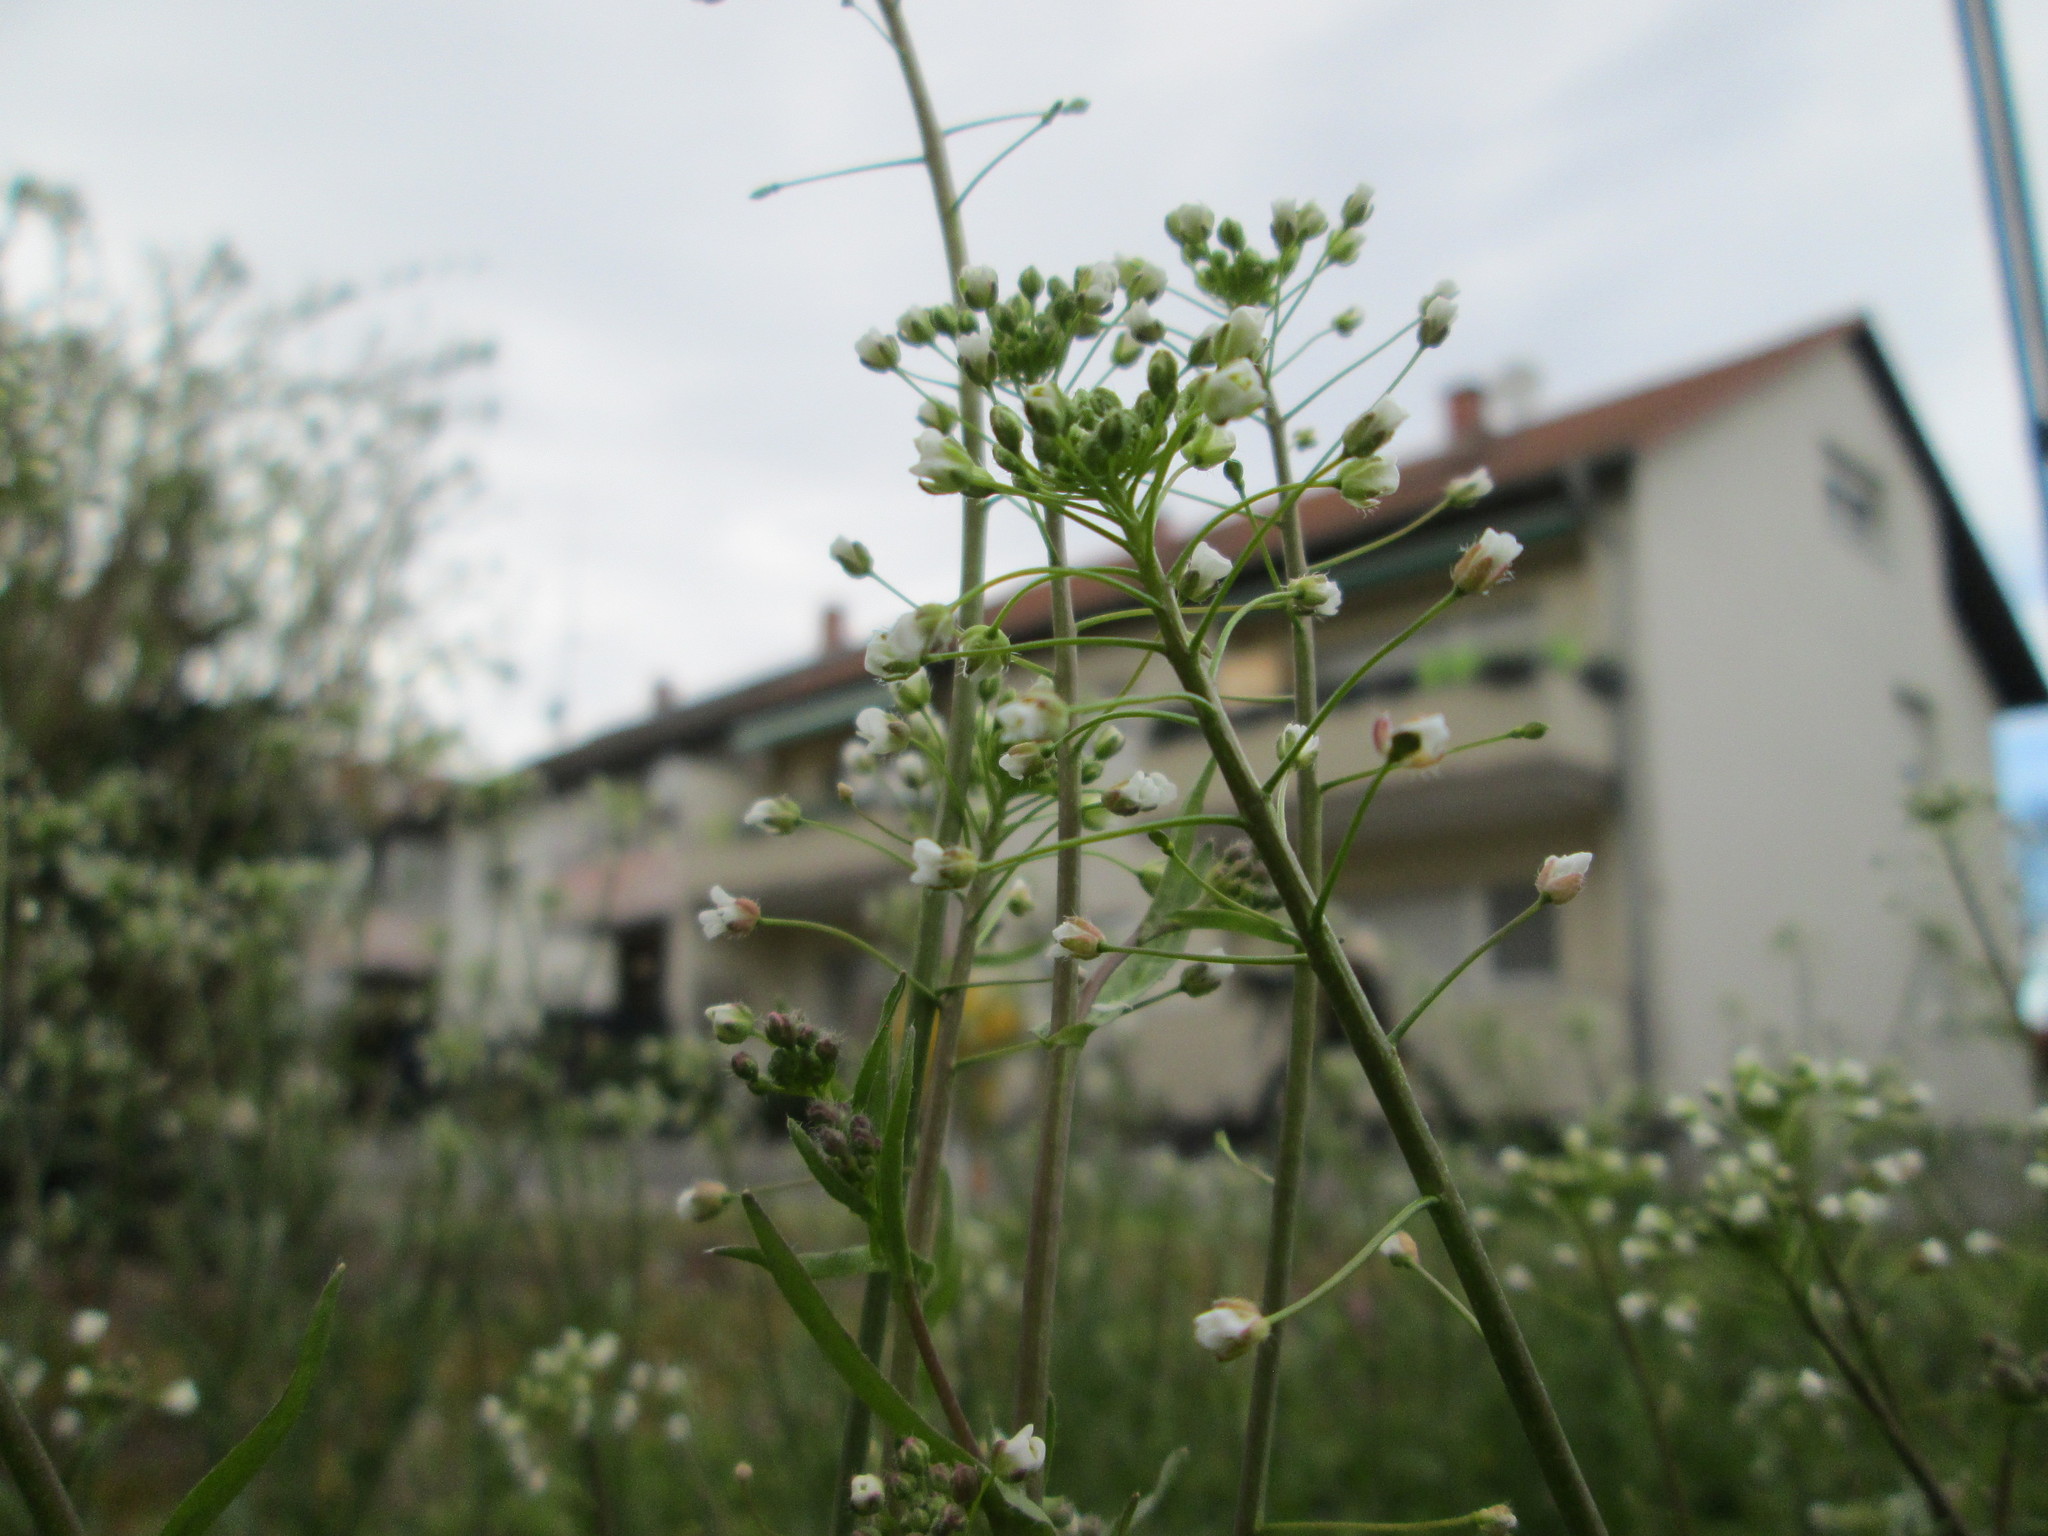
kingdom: Plantae
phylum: Tracheophyta
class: Magnoliopsida
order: Brassicales
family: Brassicaceae
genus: Capsella
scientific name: Capsella bursa-pastoris
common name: Shepherd's purse
